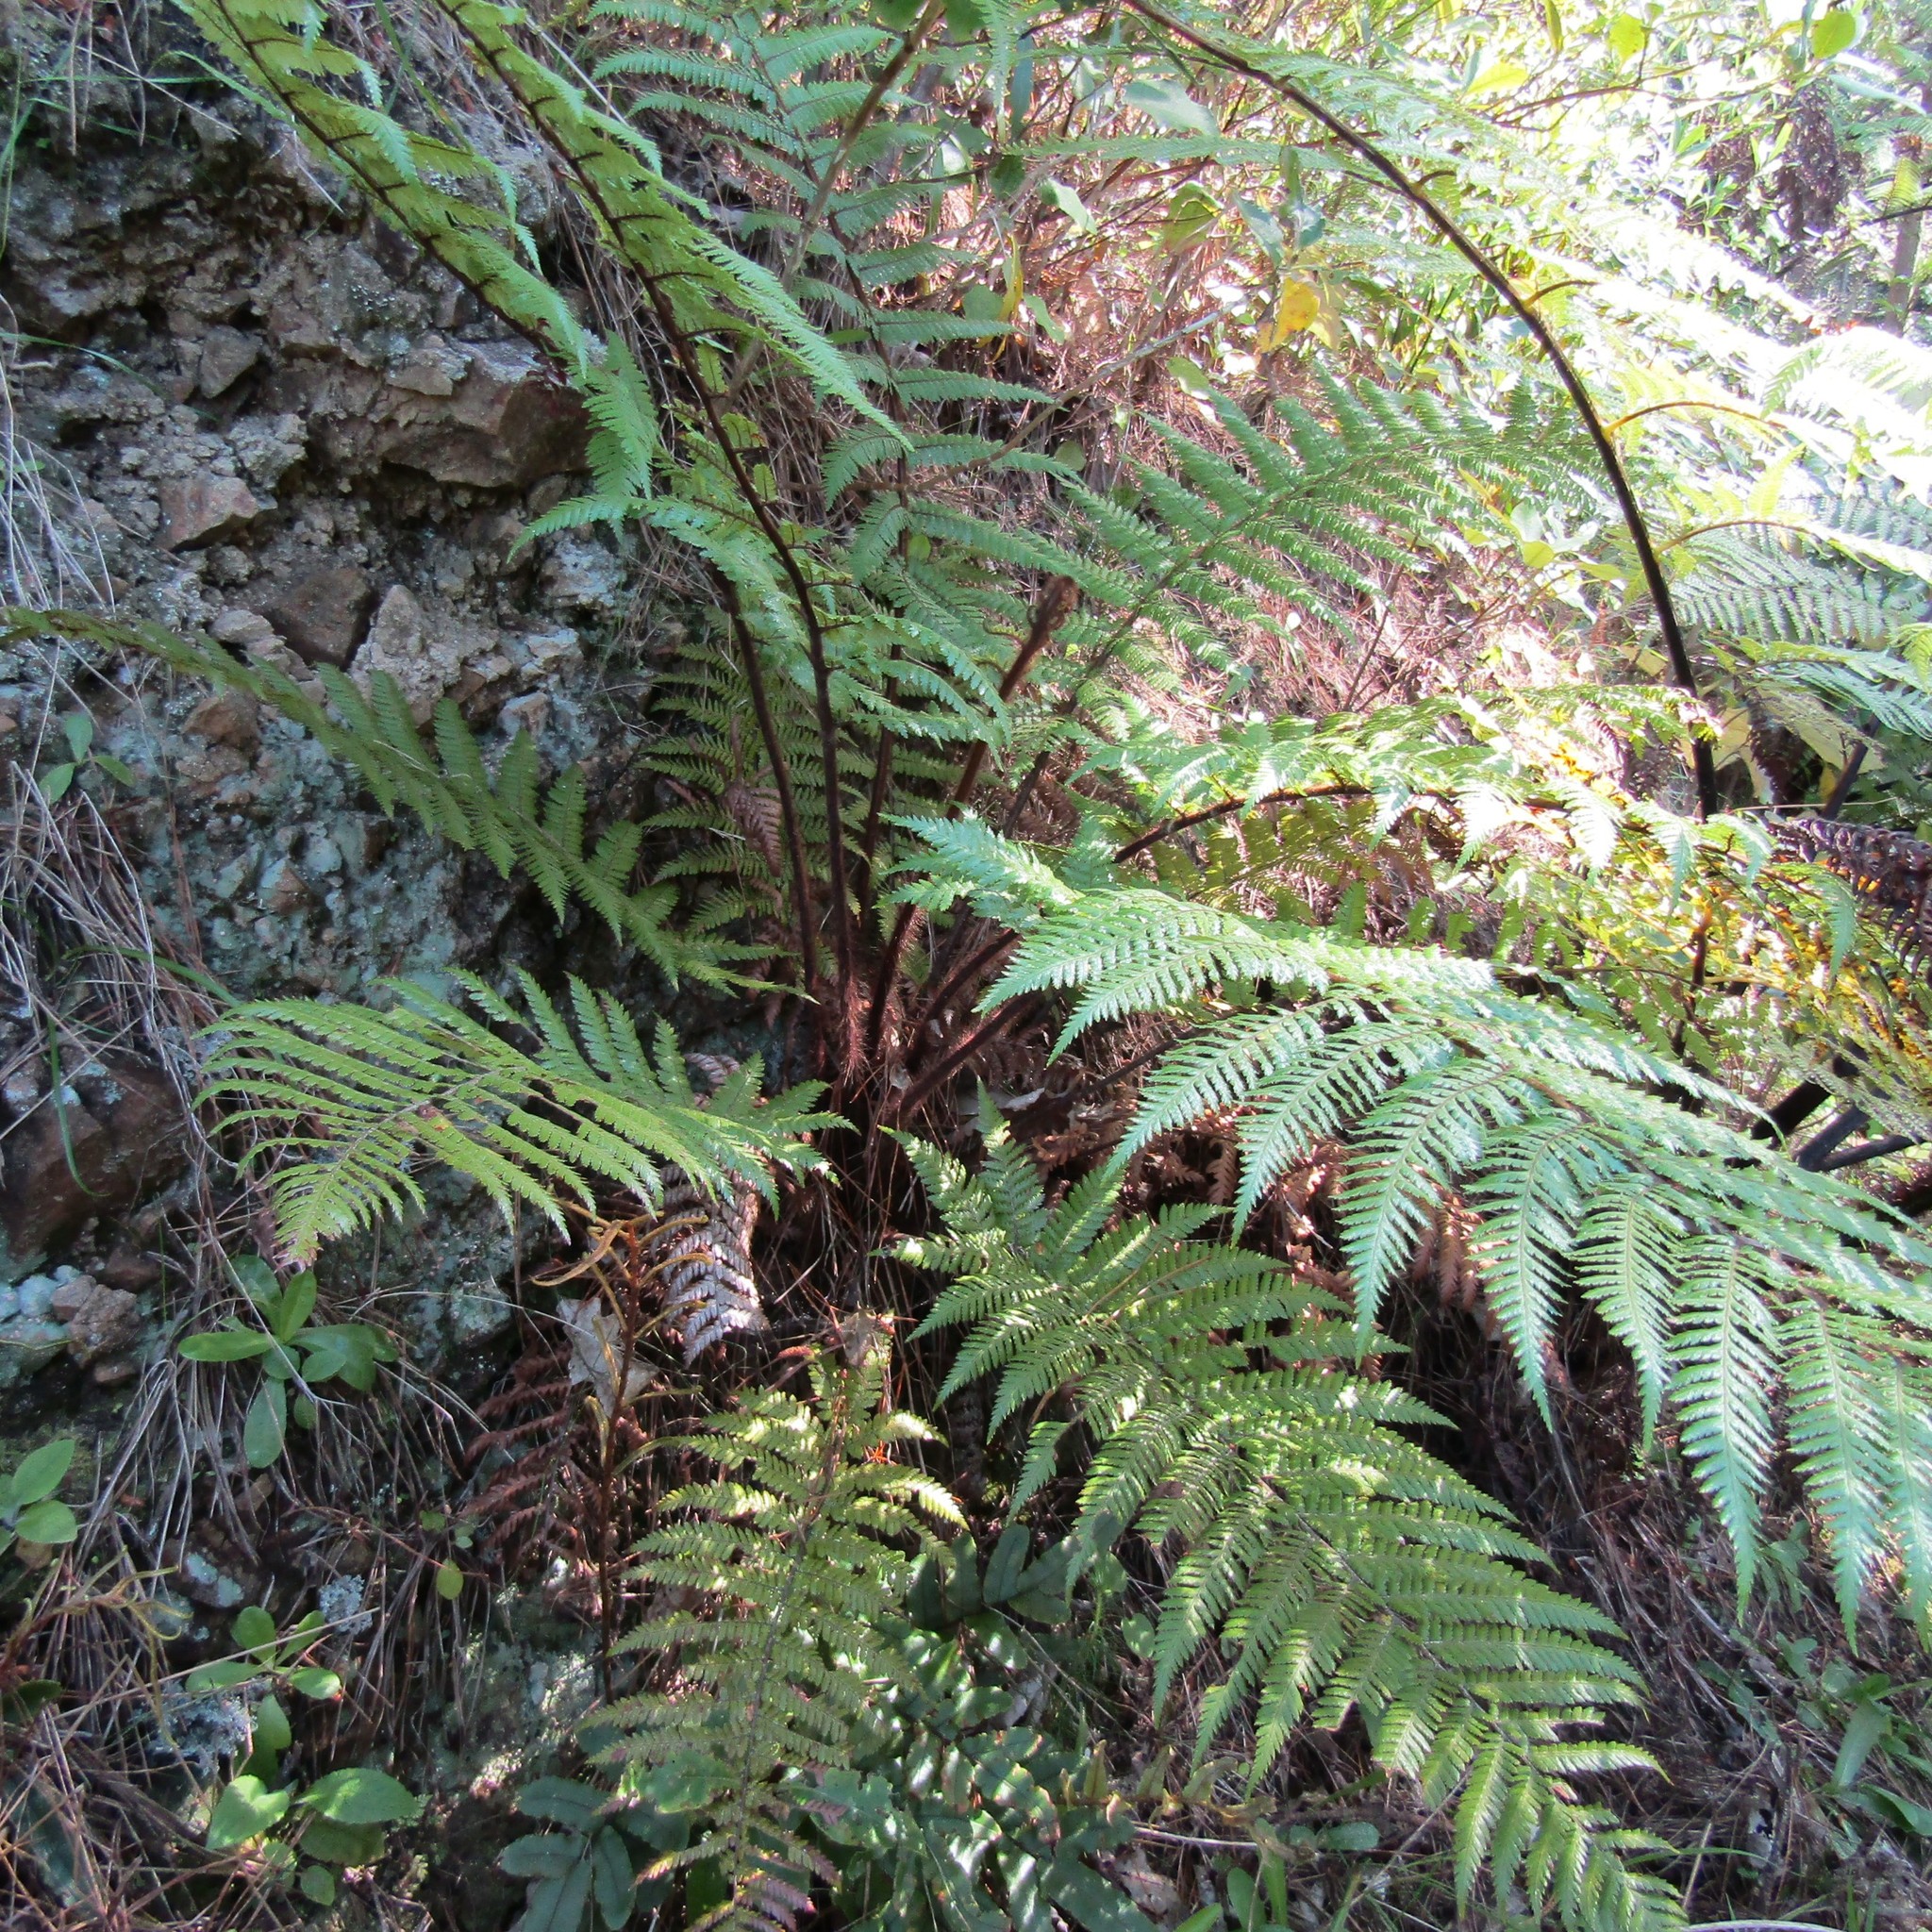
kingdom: Plantae
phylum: Tracheophyta
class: Polypodiopsida
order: Cyatheales
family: Dicksoniaceae
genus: Dicksonia
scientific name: Dicksonia squarrosa
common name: Hard treefern
